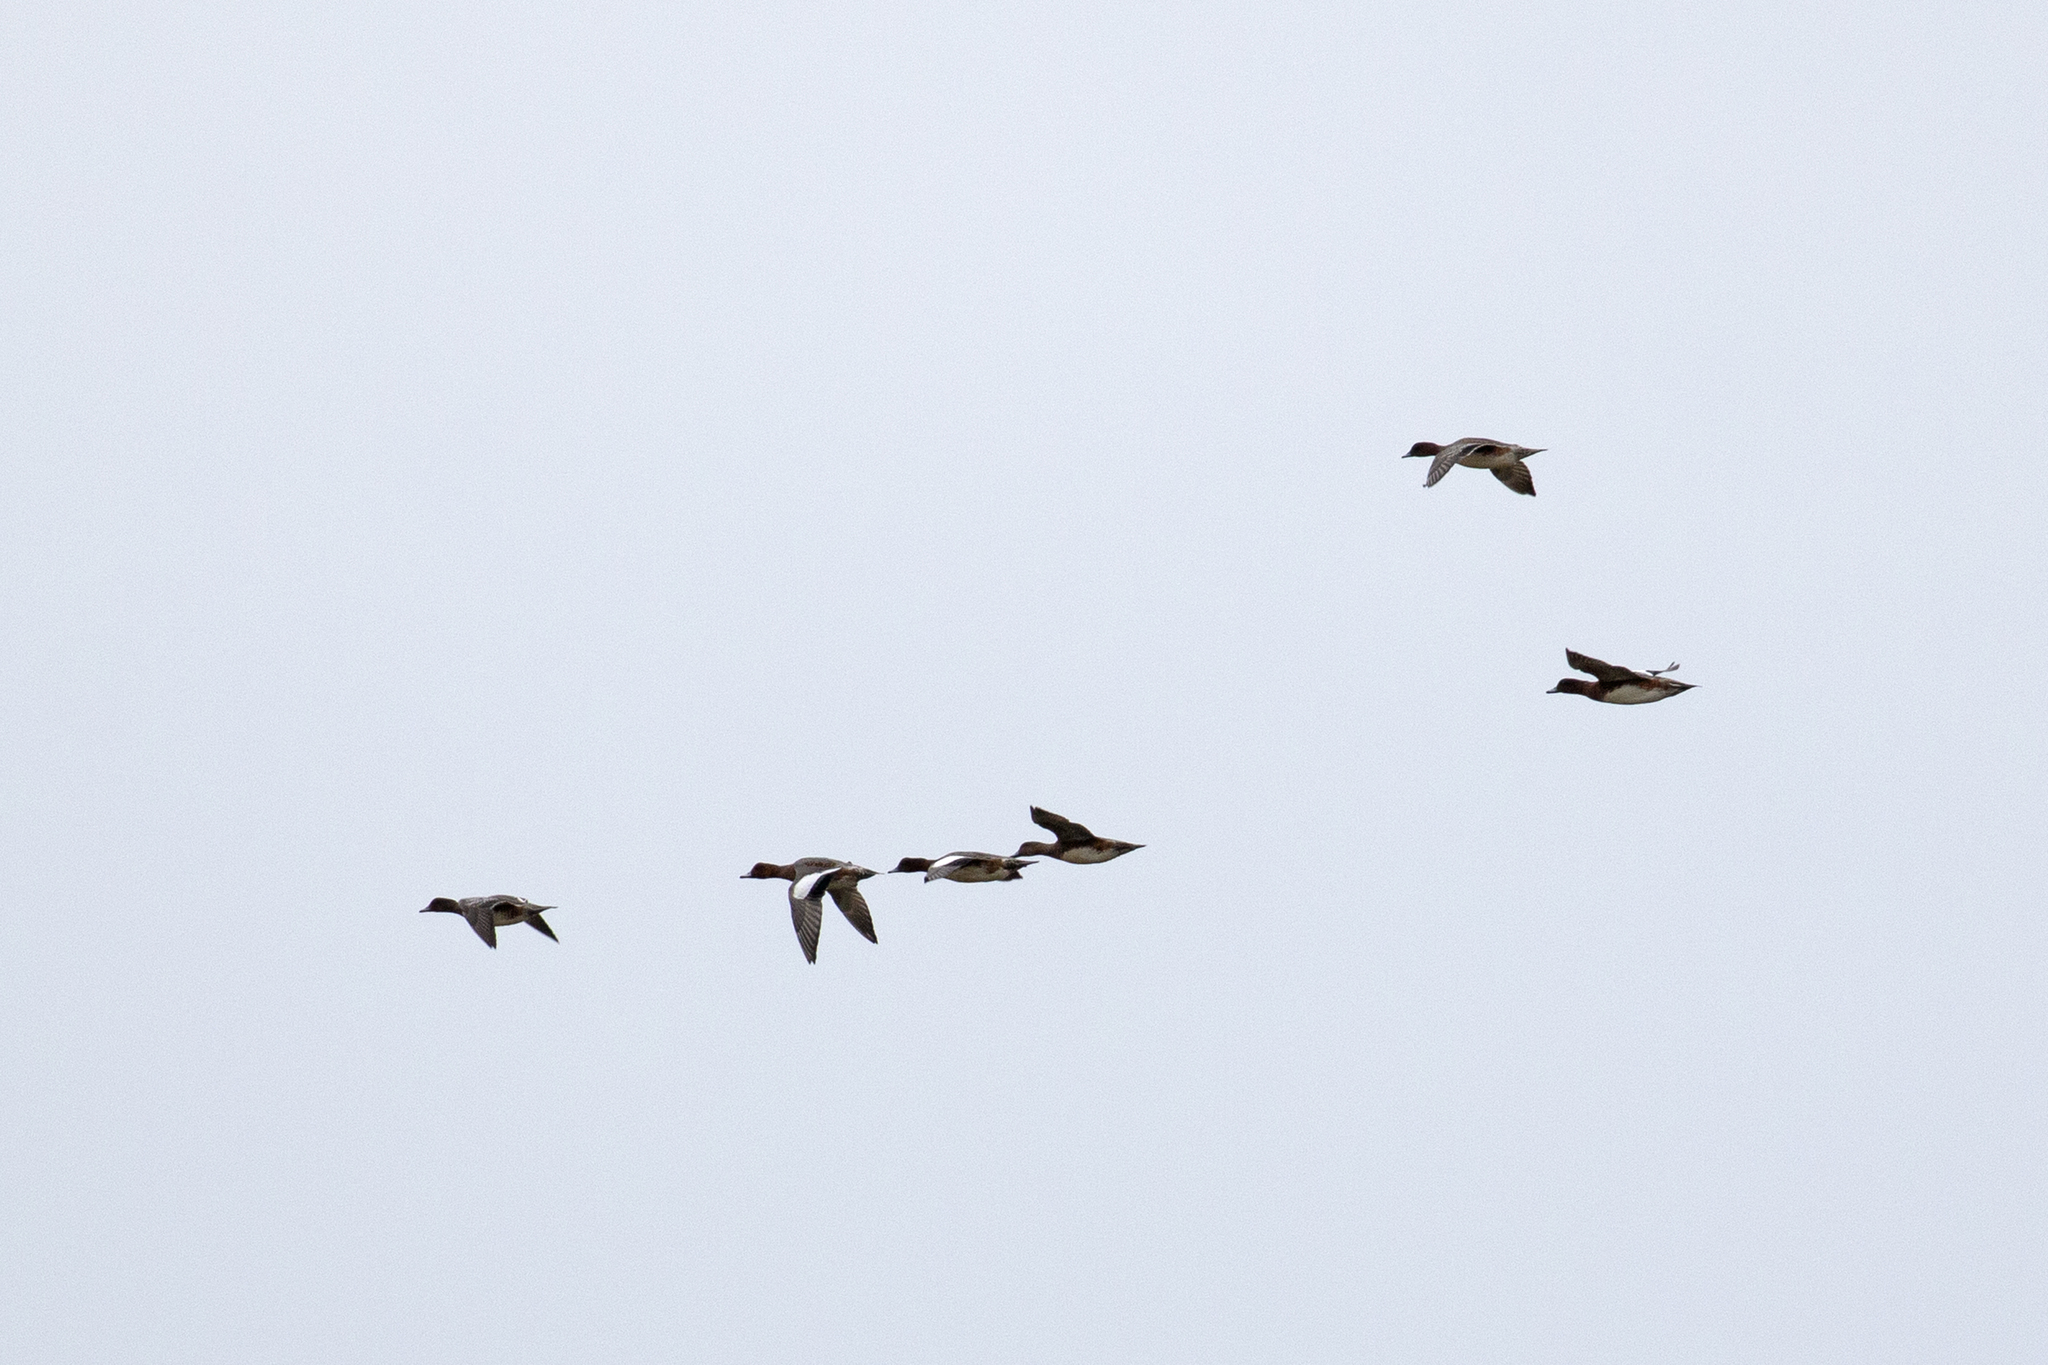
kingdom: Animalia
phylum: Chordata
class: Aves
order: Anseriformes
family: Anatidae
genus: Mareca
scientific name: Mareca penelope
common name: Eurasian wigeon
